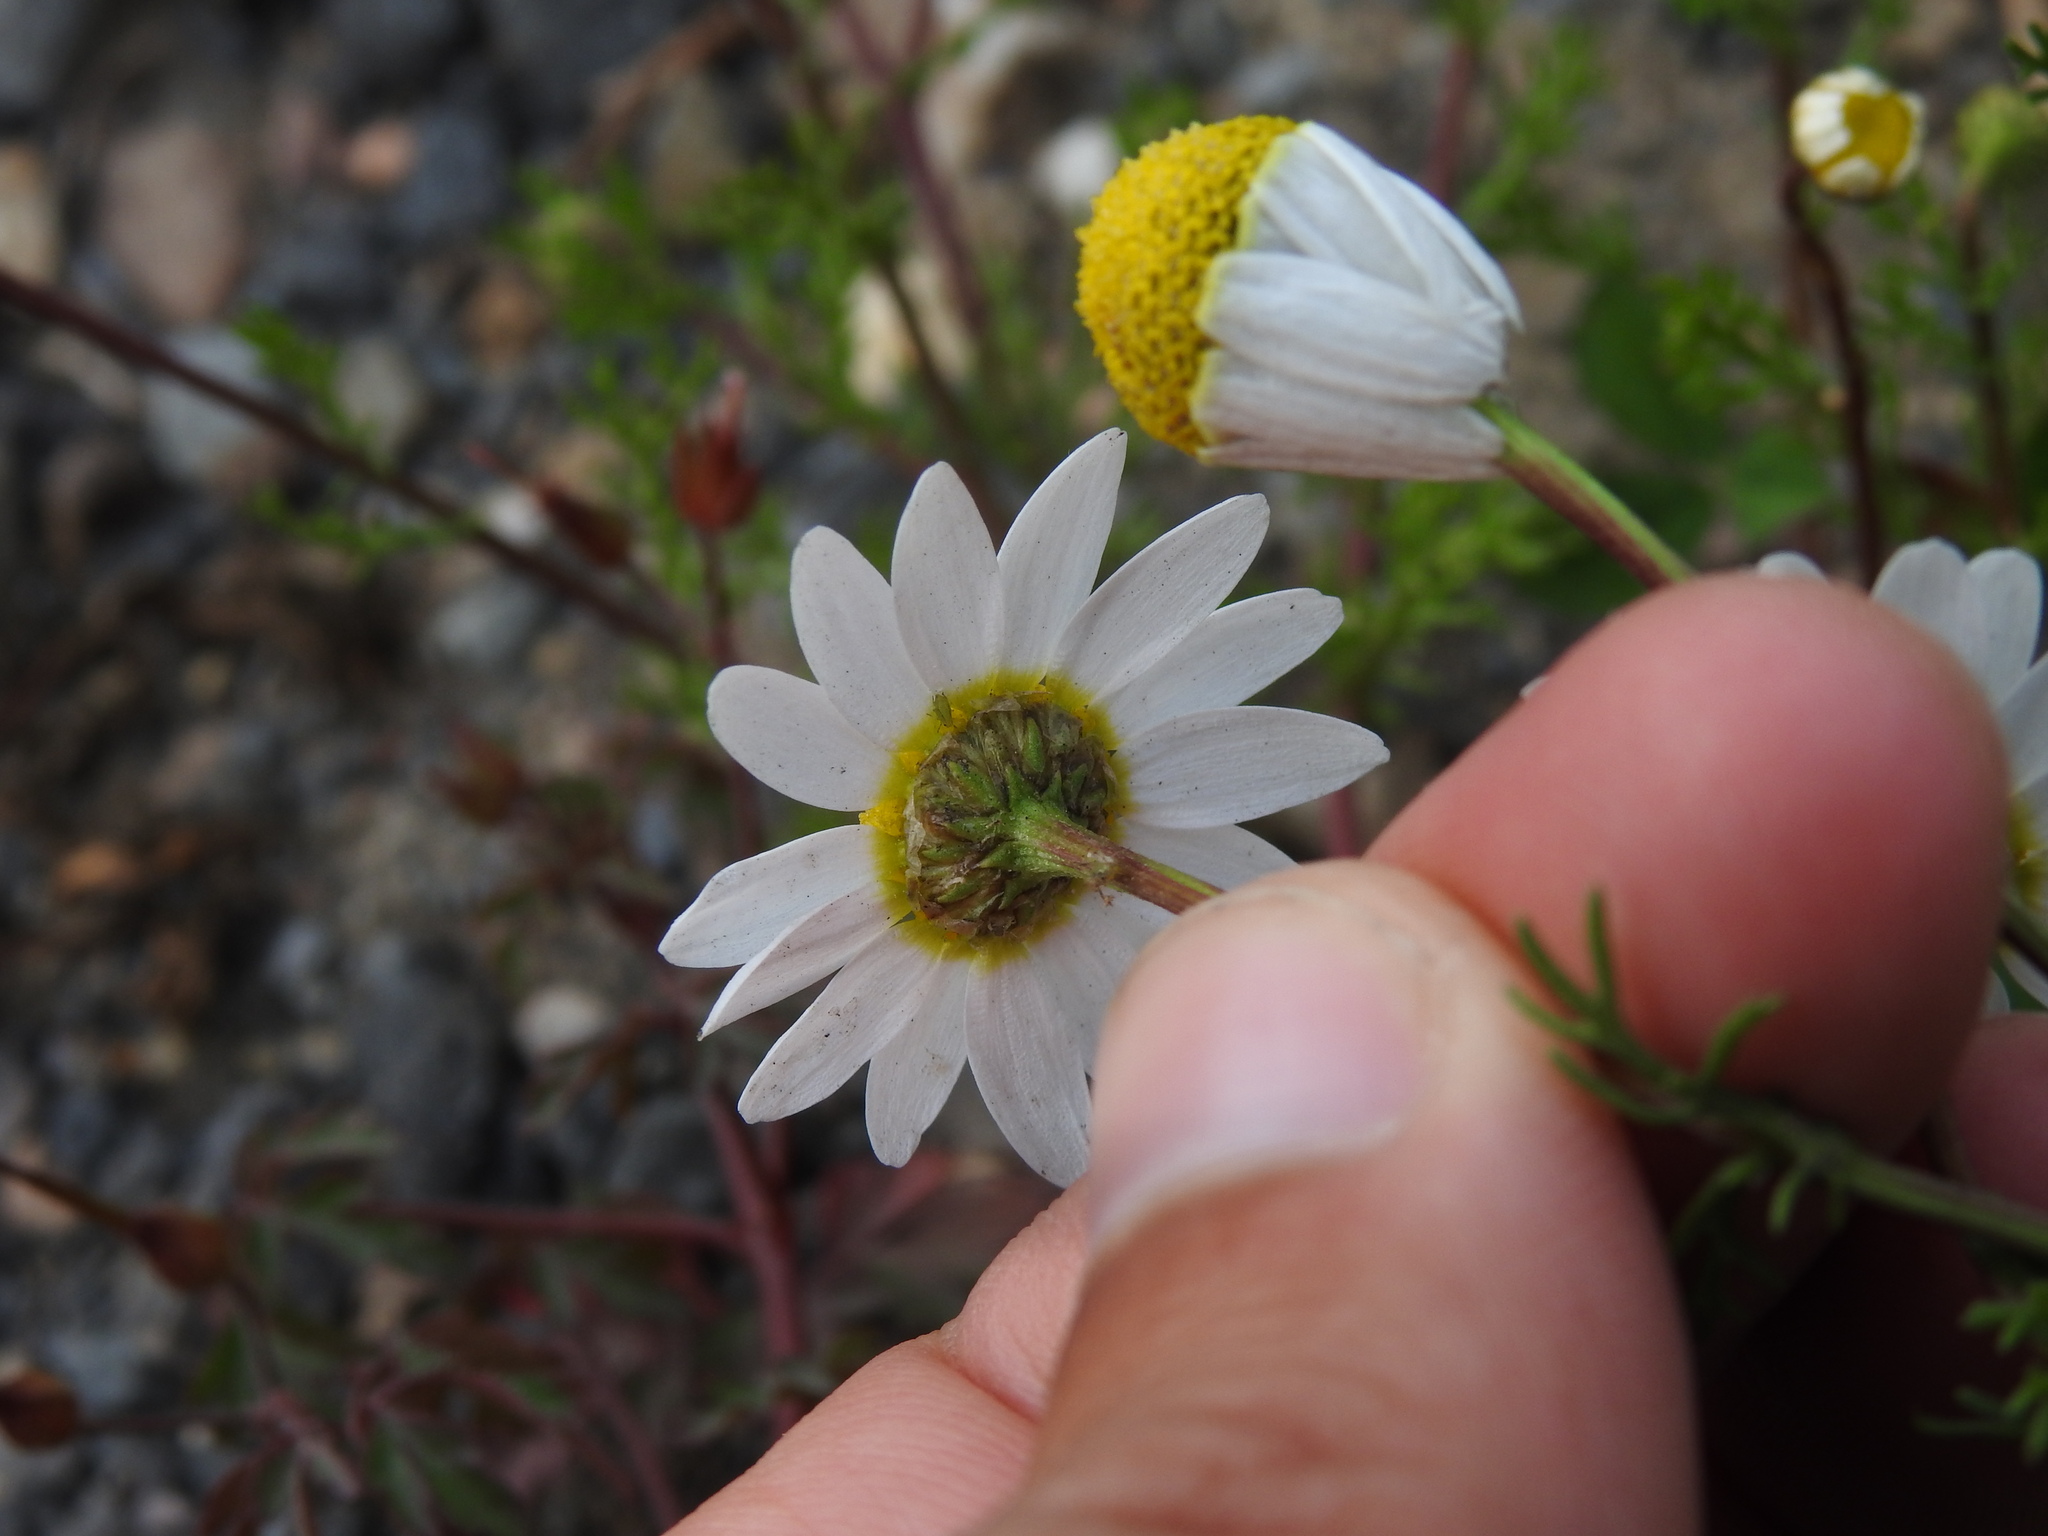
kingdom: Plantae
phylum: Tracheophyta
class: Magnoliopsida
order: Asterales
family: Asteraceae
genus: Chamaemelum
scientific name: Chamaemelum fuscatum
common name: Chamomile
